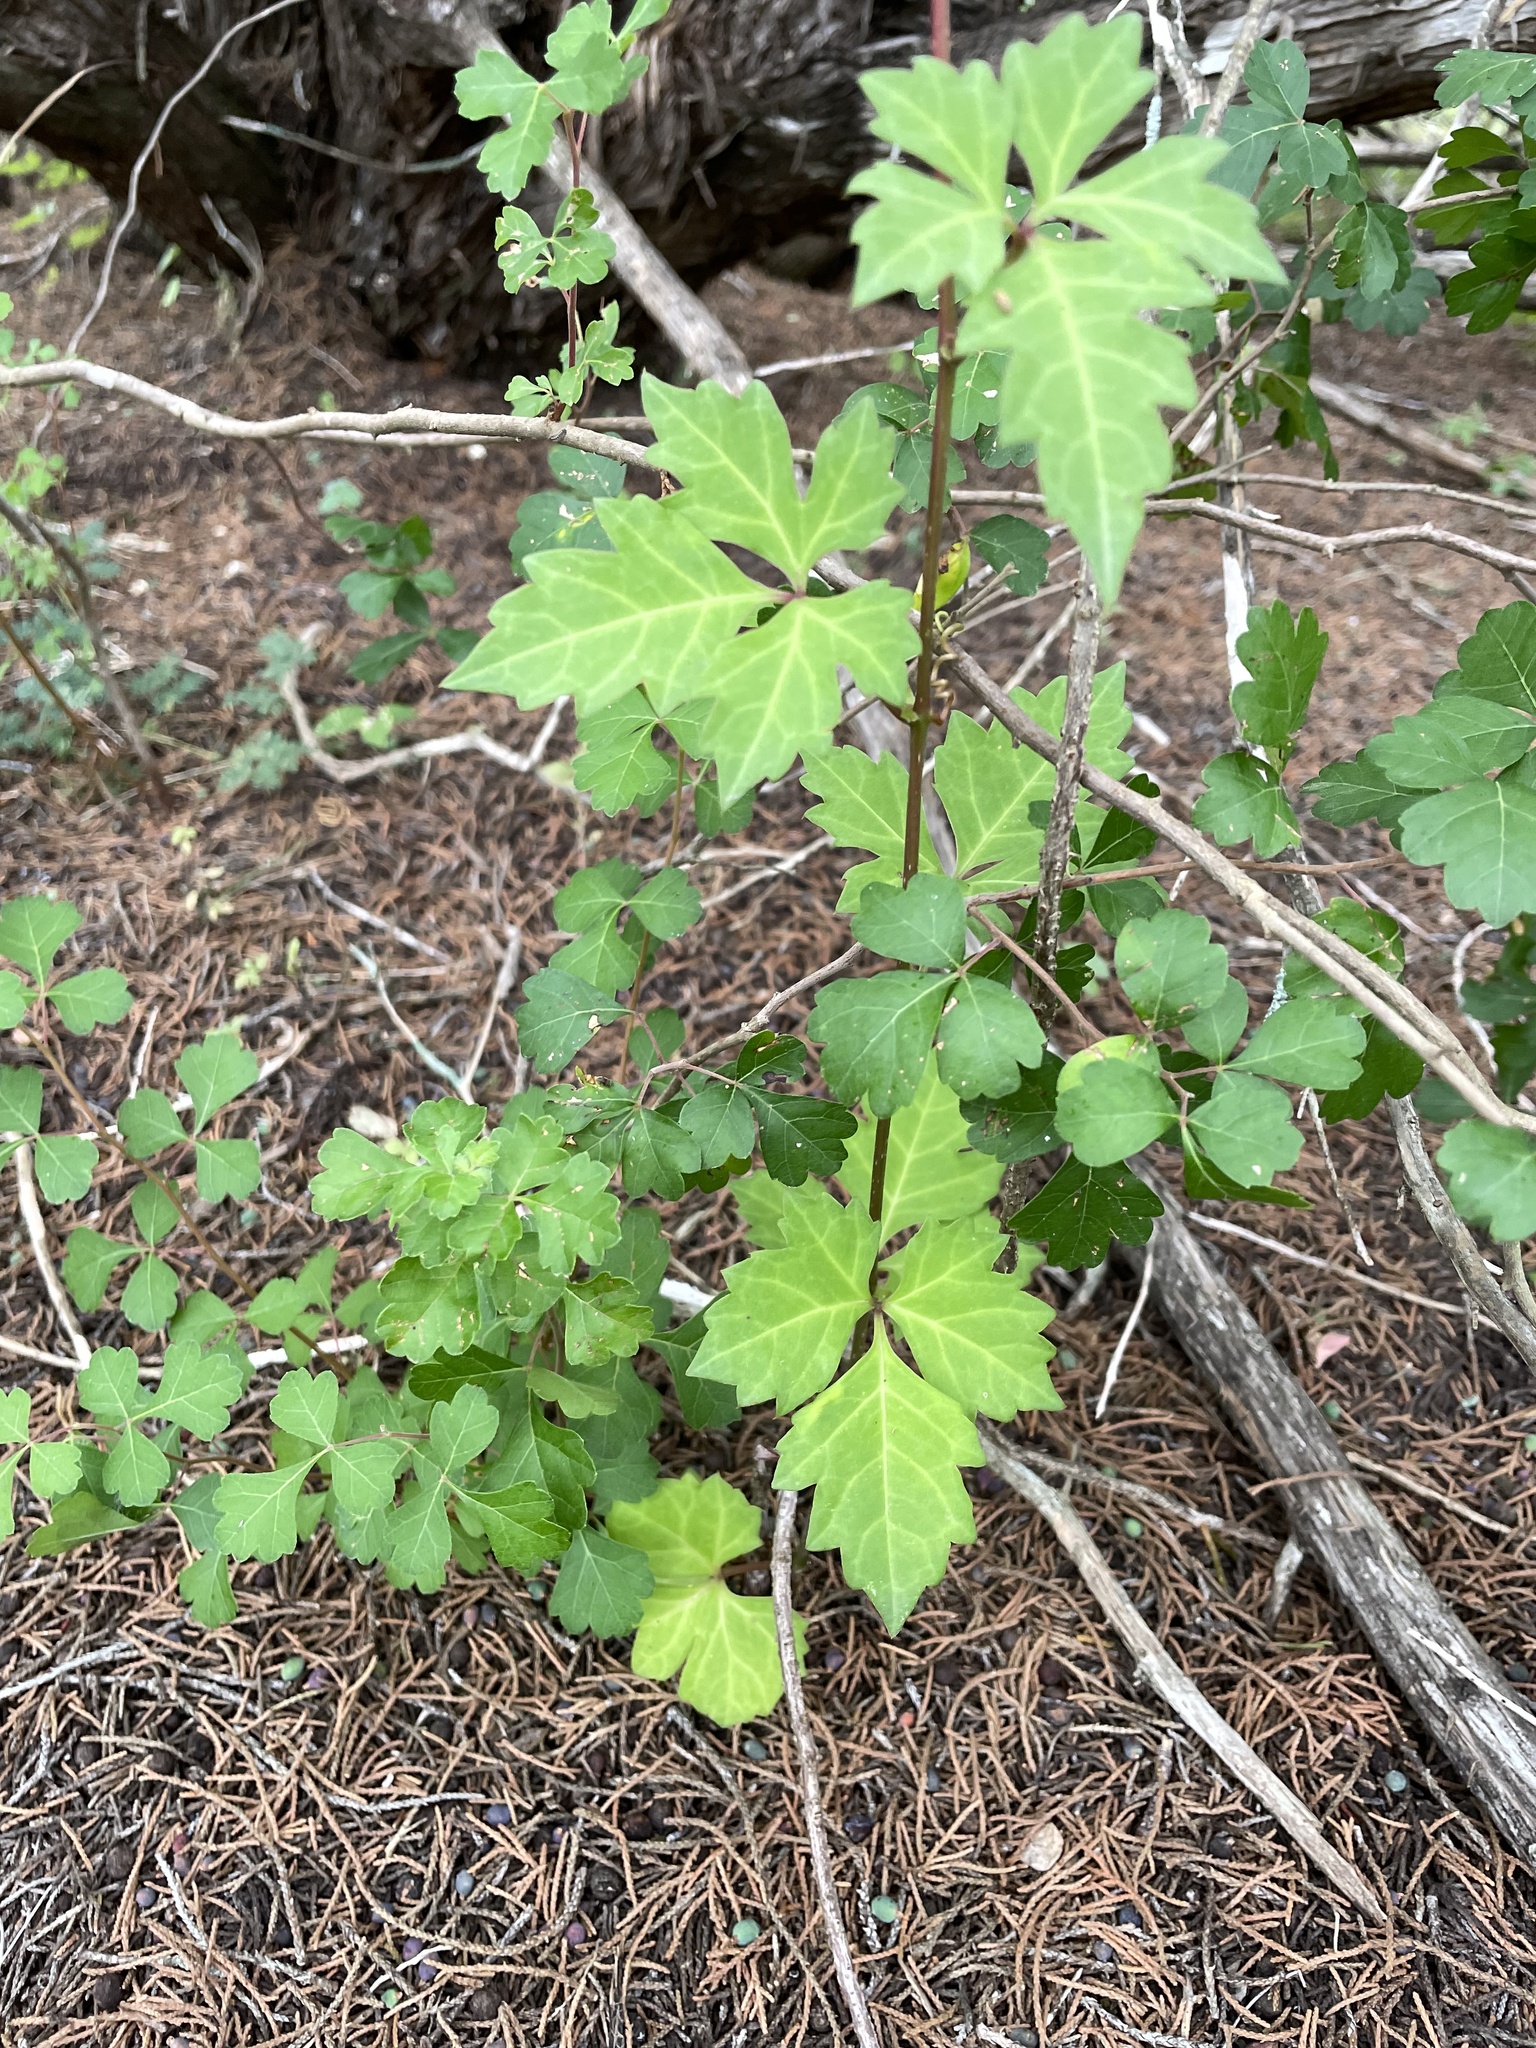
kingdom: Plantae
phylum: Tracheophyta
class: Magnoliopsida
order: Vitales
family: Vitaceae
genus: Cissus
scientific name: Cissus trifoliata
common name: Vine-sorrel
